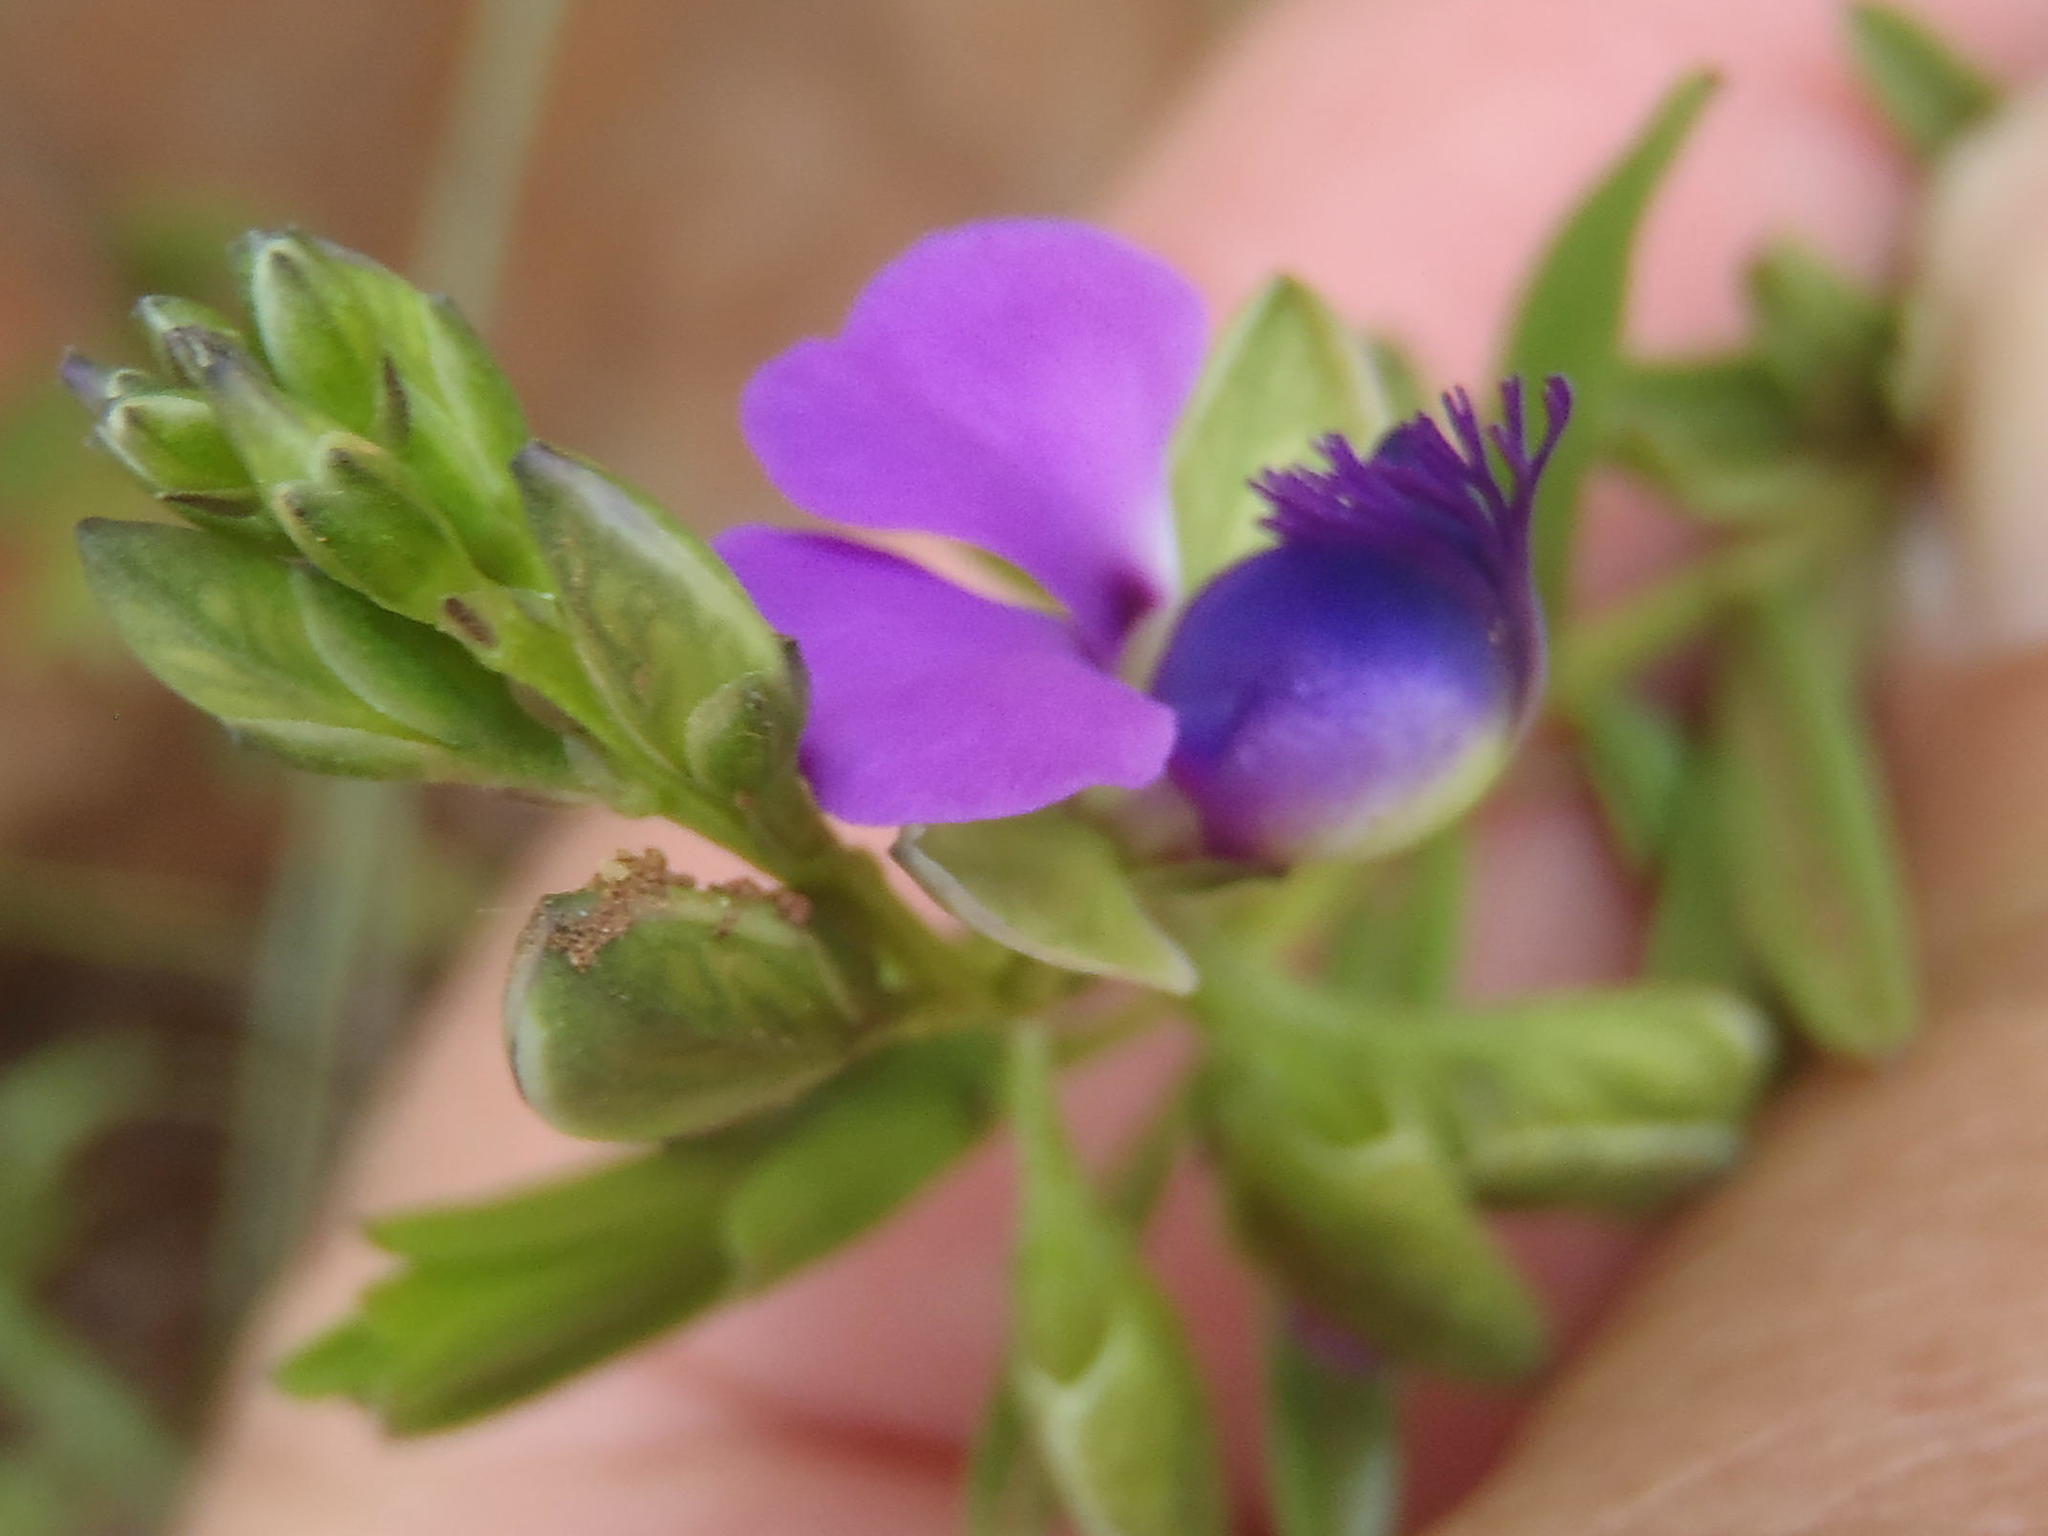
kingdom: Plantae
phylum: Tracheophyta
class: Magnoliopsida
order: Fabales
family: Polygalaceae
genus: Polygala
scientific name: Polygala rehmannii
